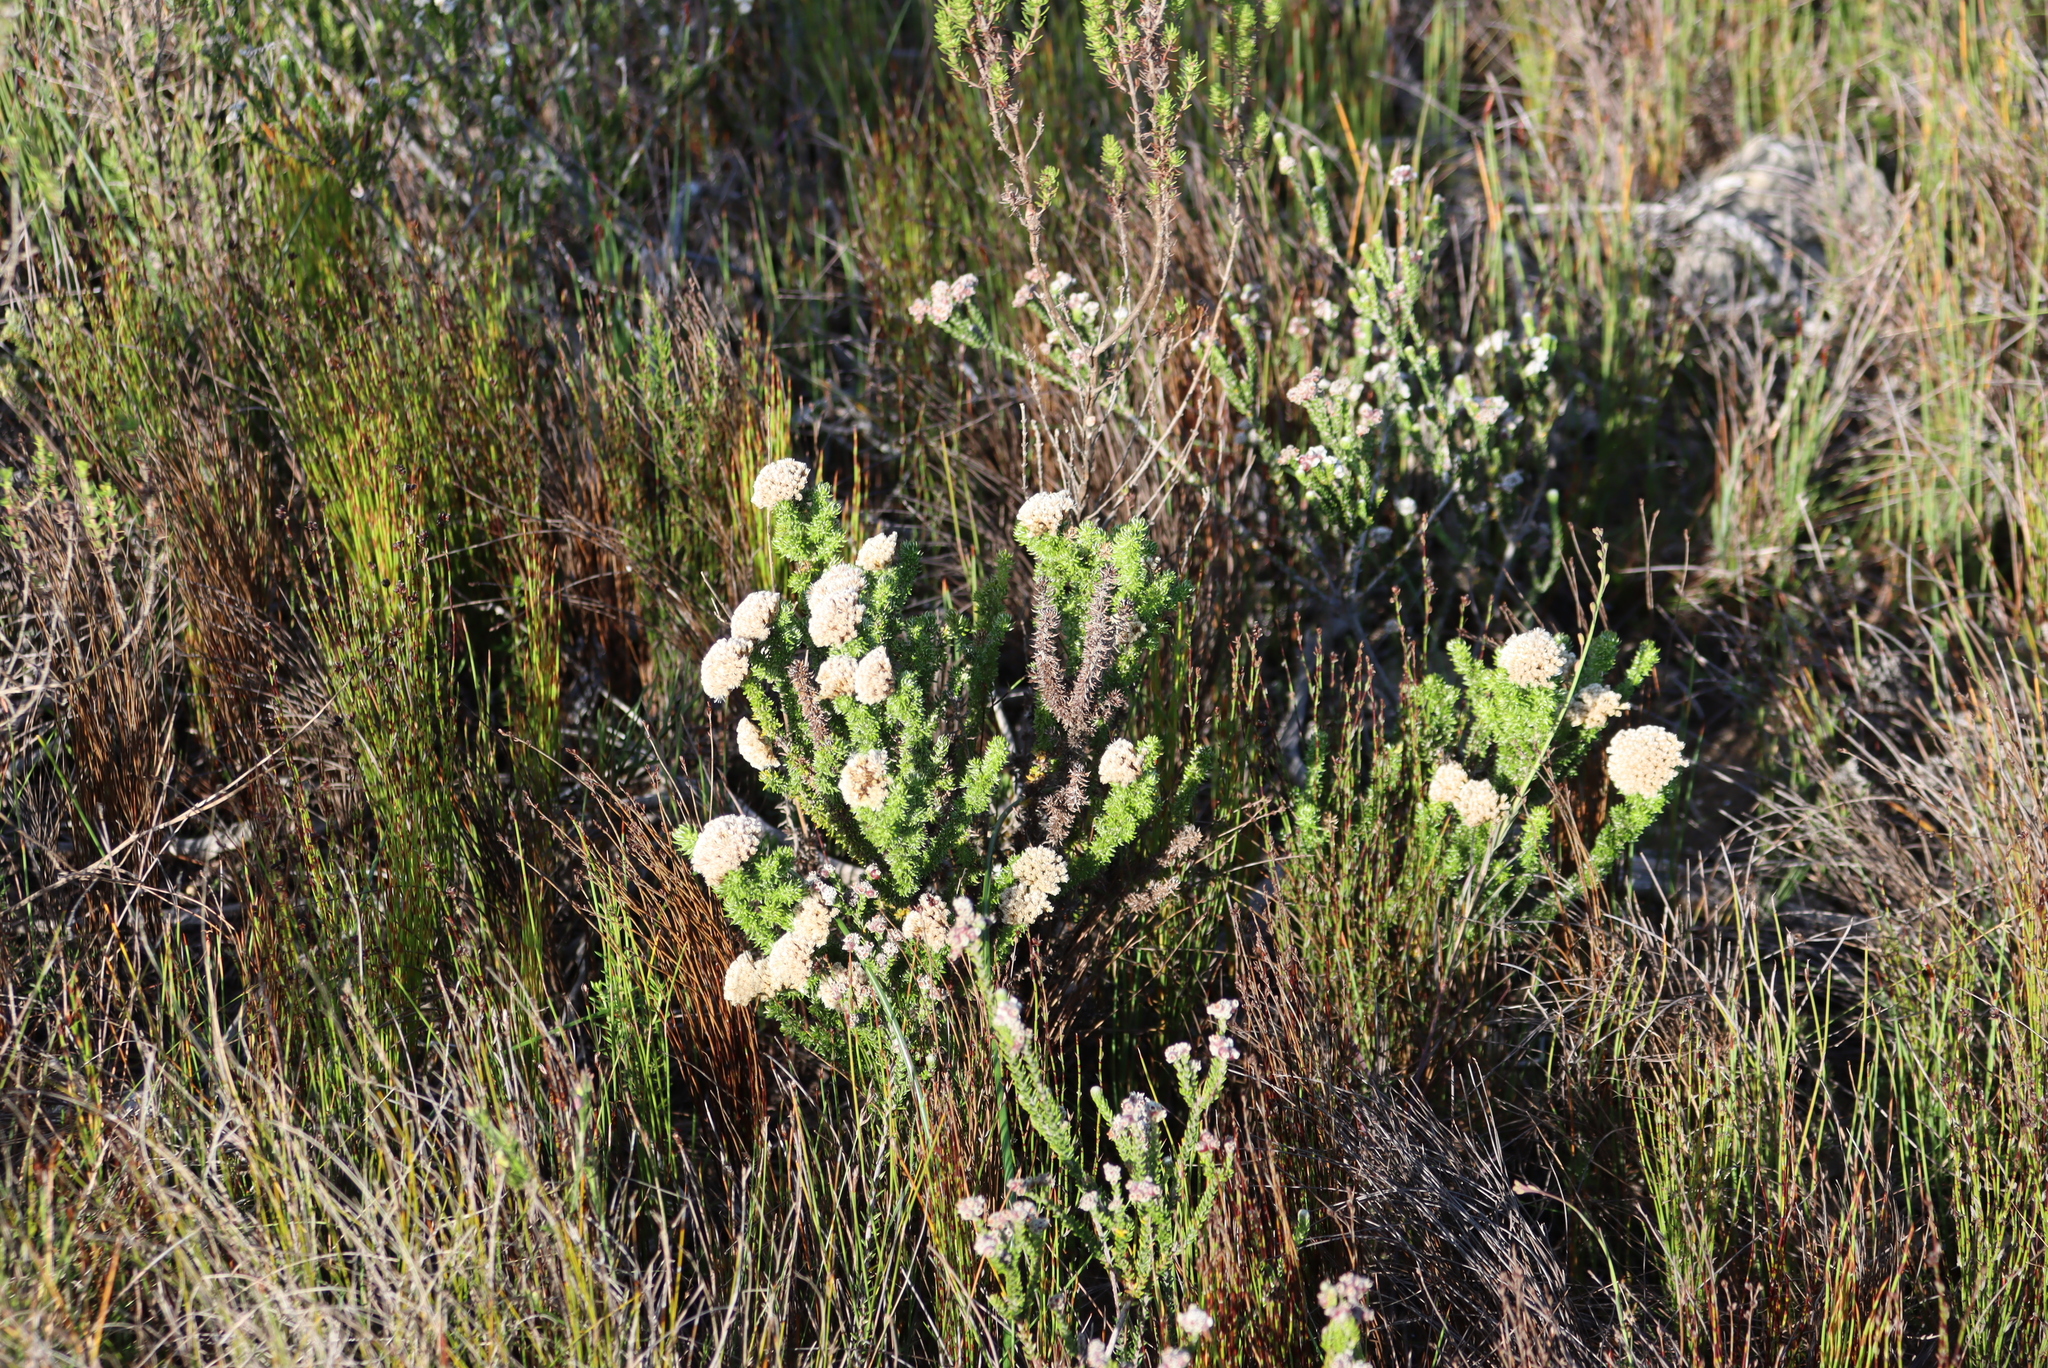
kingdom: Plantae
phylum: Tracheophyta
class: Magnoliopsida
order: Asterales
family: Asteraceae
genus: Metalasia
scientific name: Metalasia luteola
